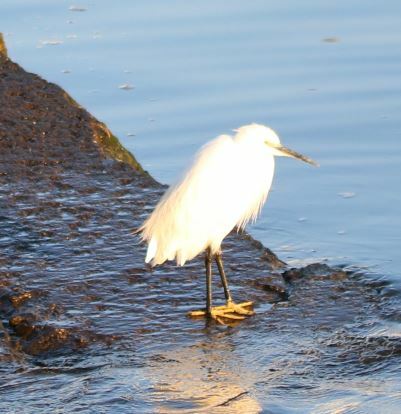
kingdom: Animalia
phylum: Chordata
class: Aves
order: Pelecaniformes
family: Ardeidae
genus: Egretta
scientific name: Egretta garzetta
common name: Little egret
